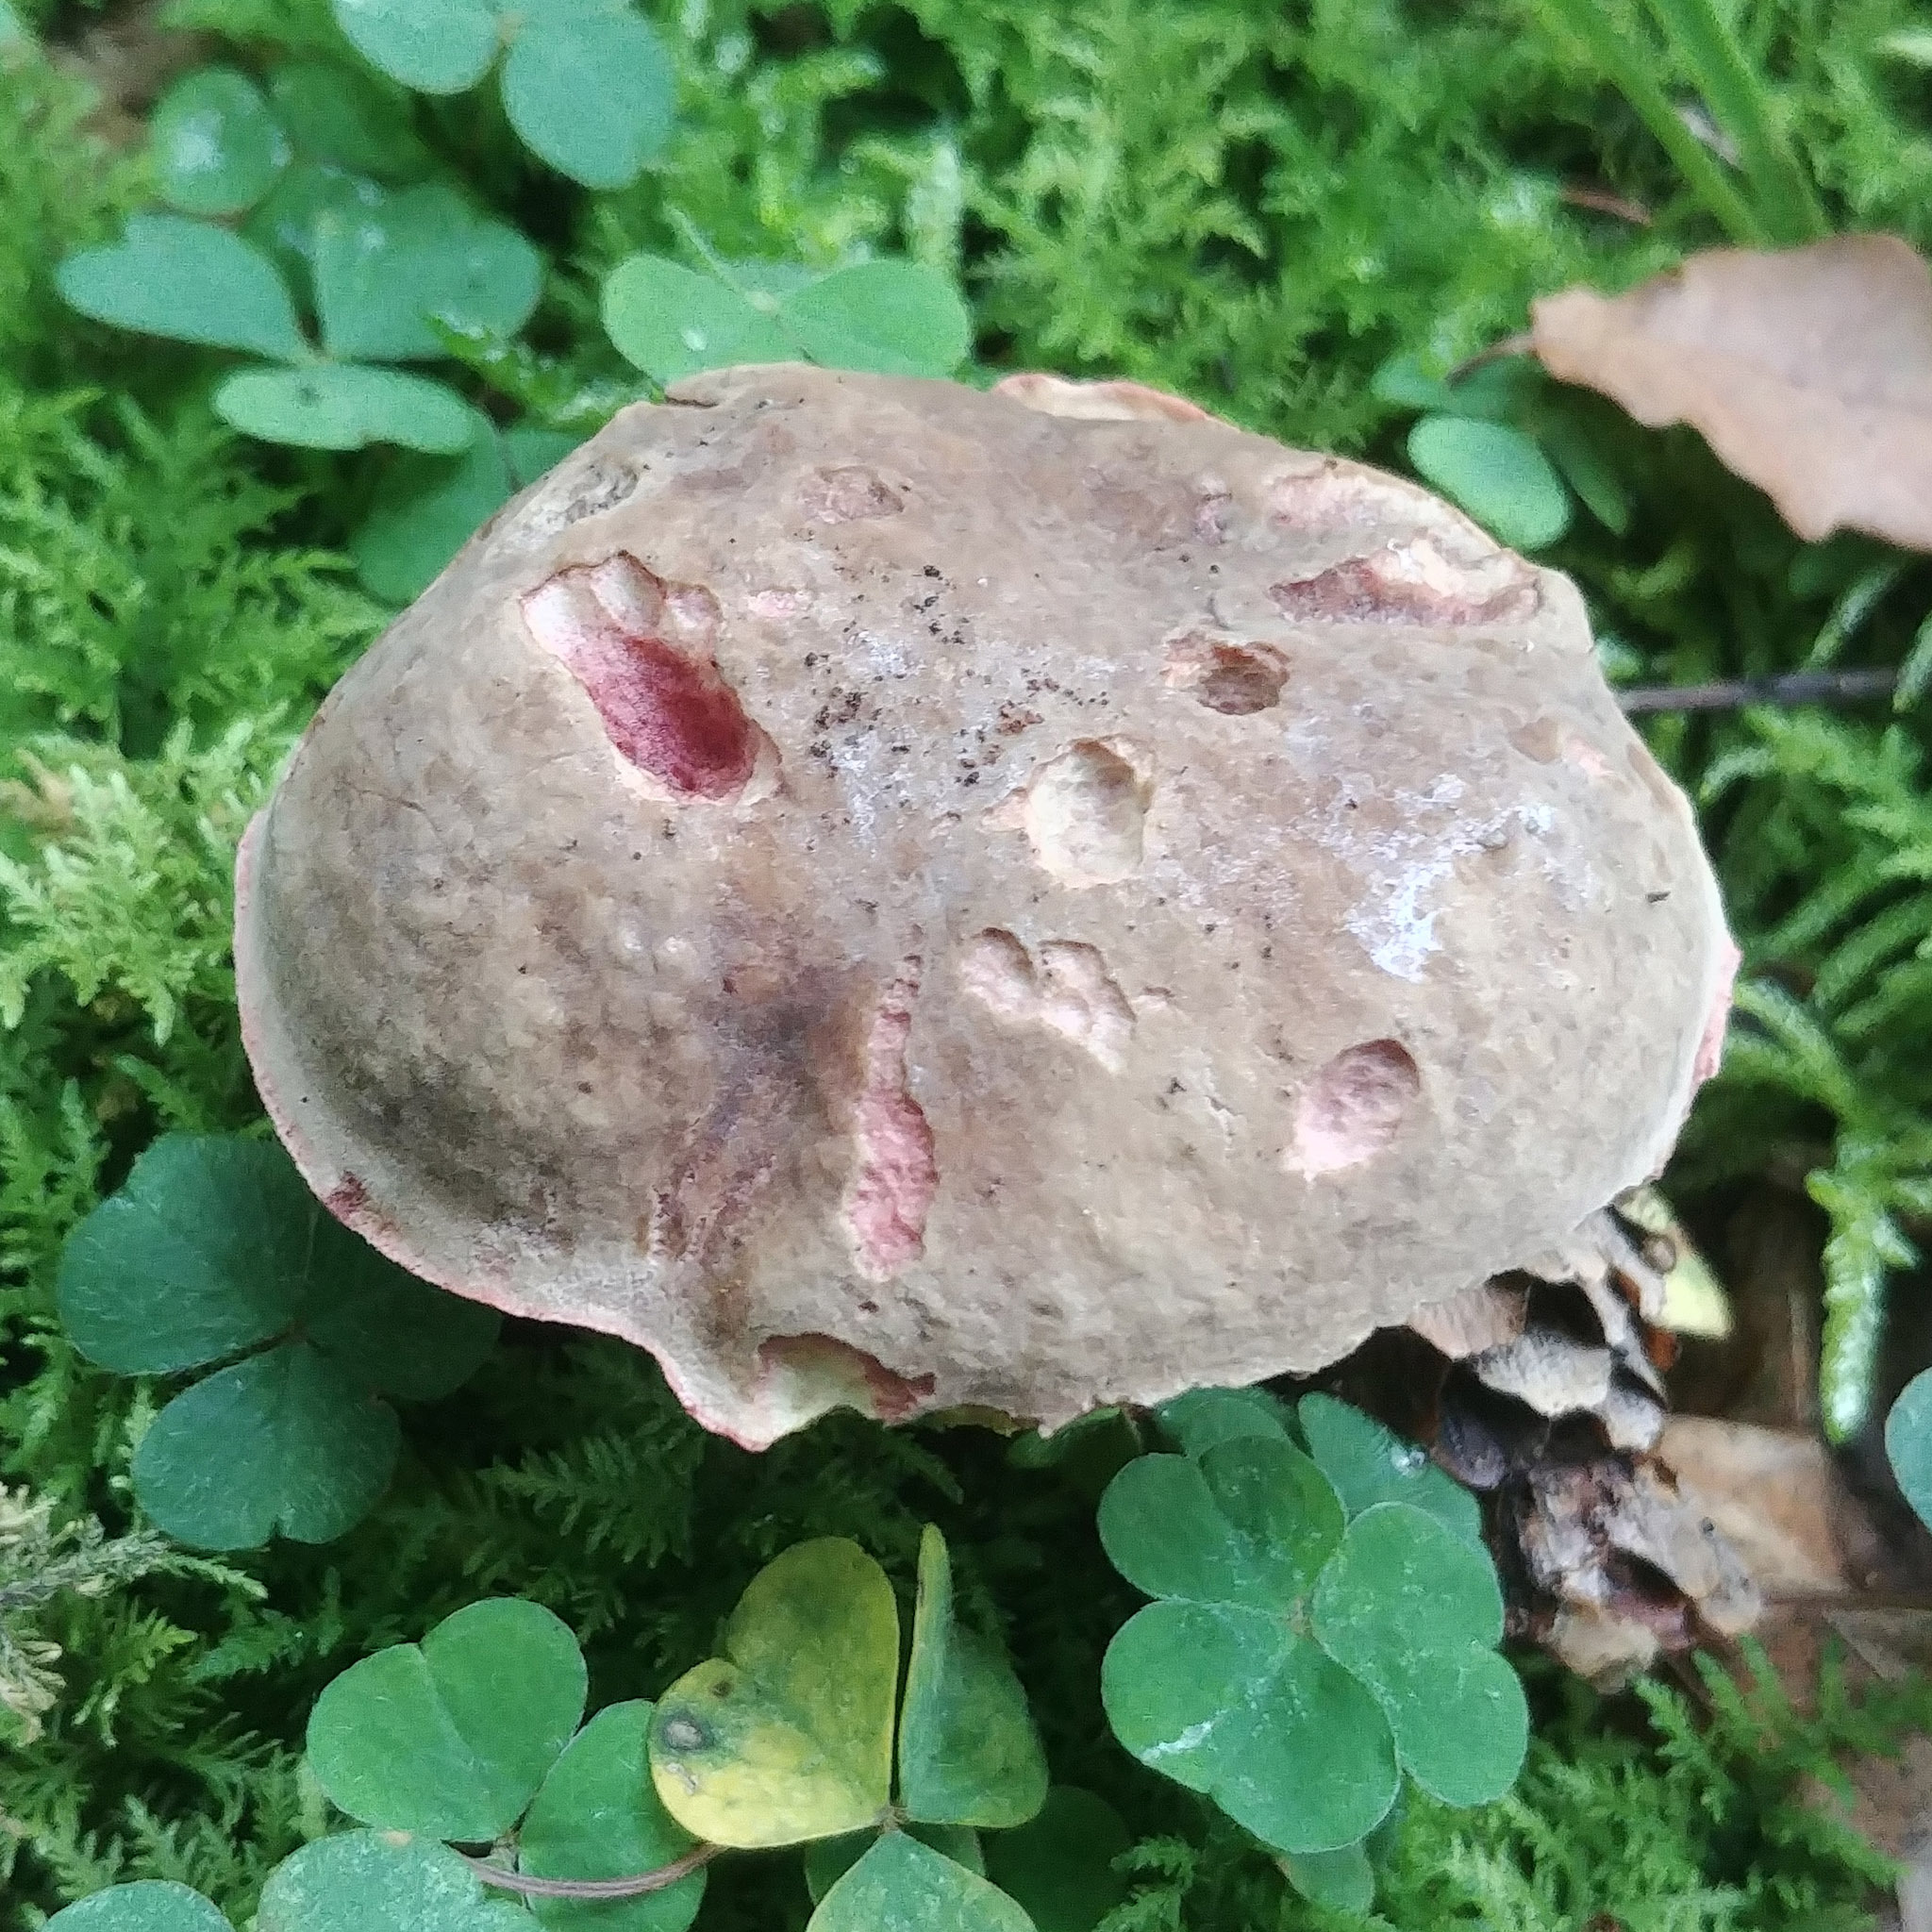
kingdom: Fungi
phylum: Basidiomycota
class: Agaricomycetes
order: Boletales
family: Boletaceae
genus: Xerocomellus
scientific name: Xerocomellus chrysenteron
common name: Red-cracking bolete
